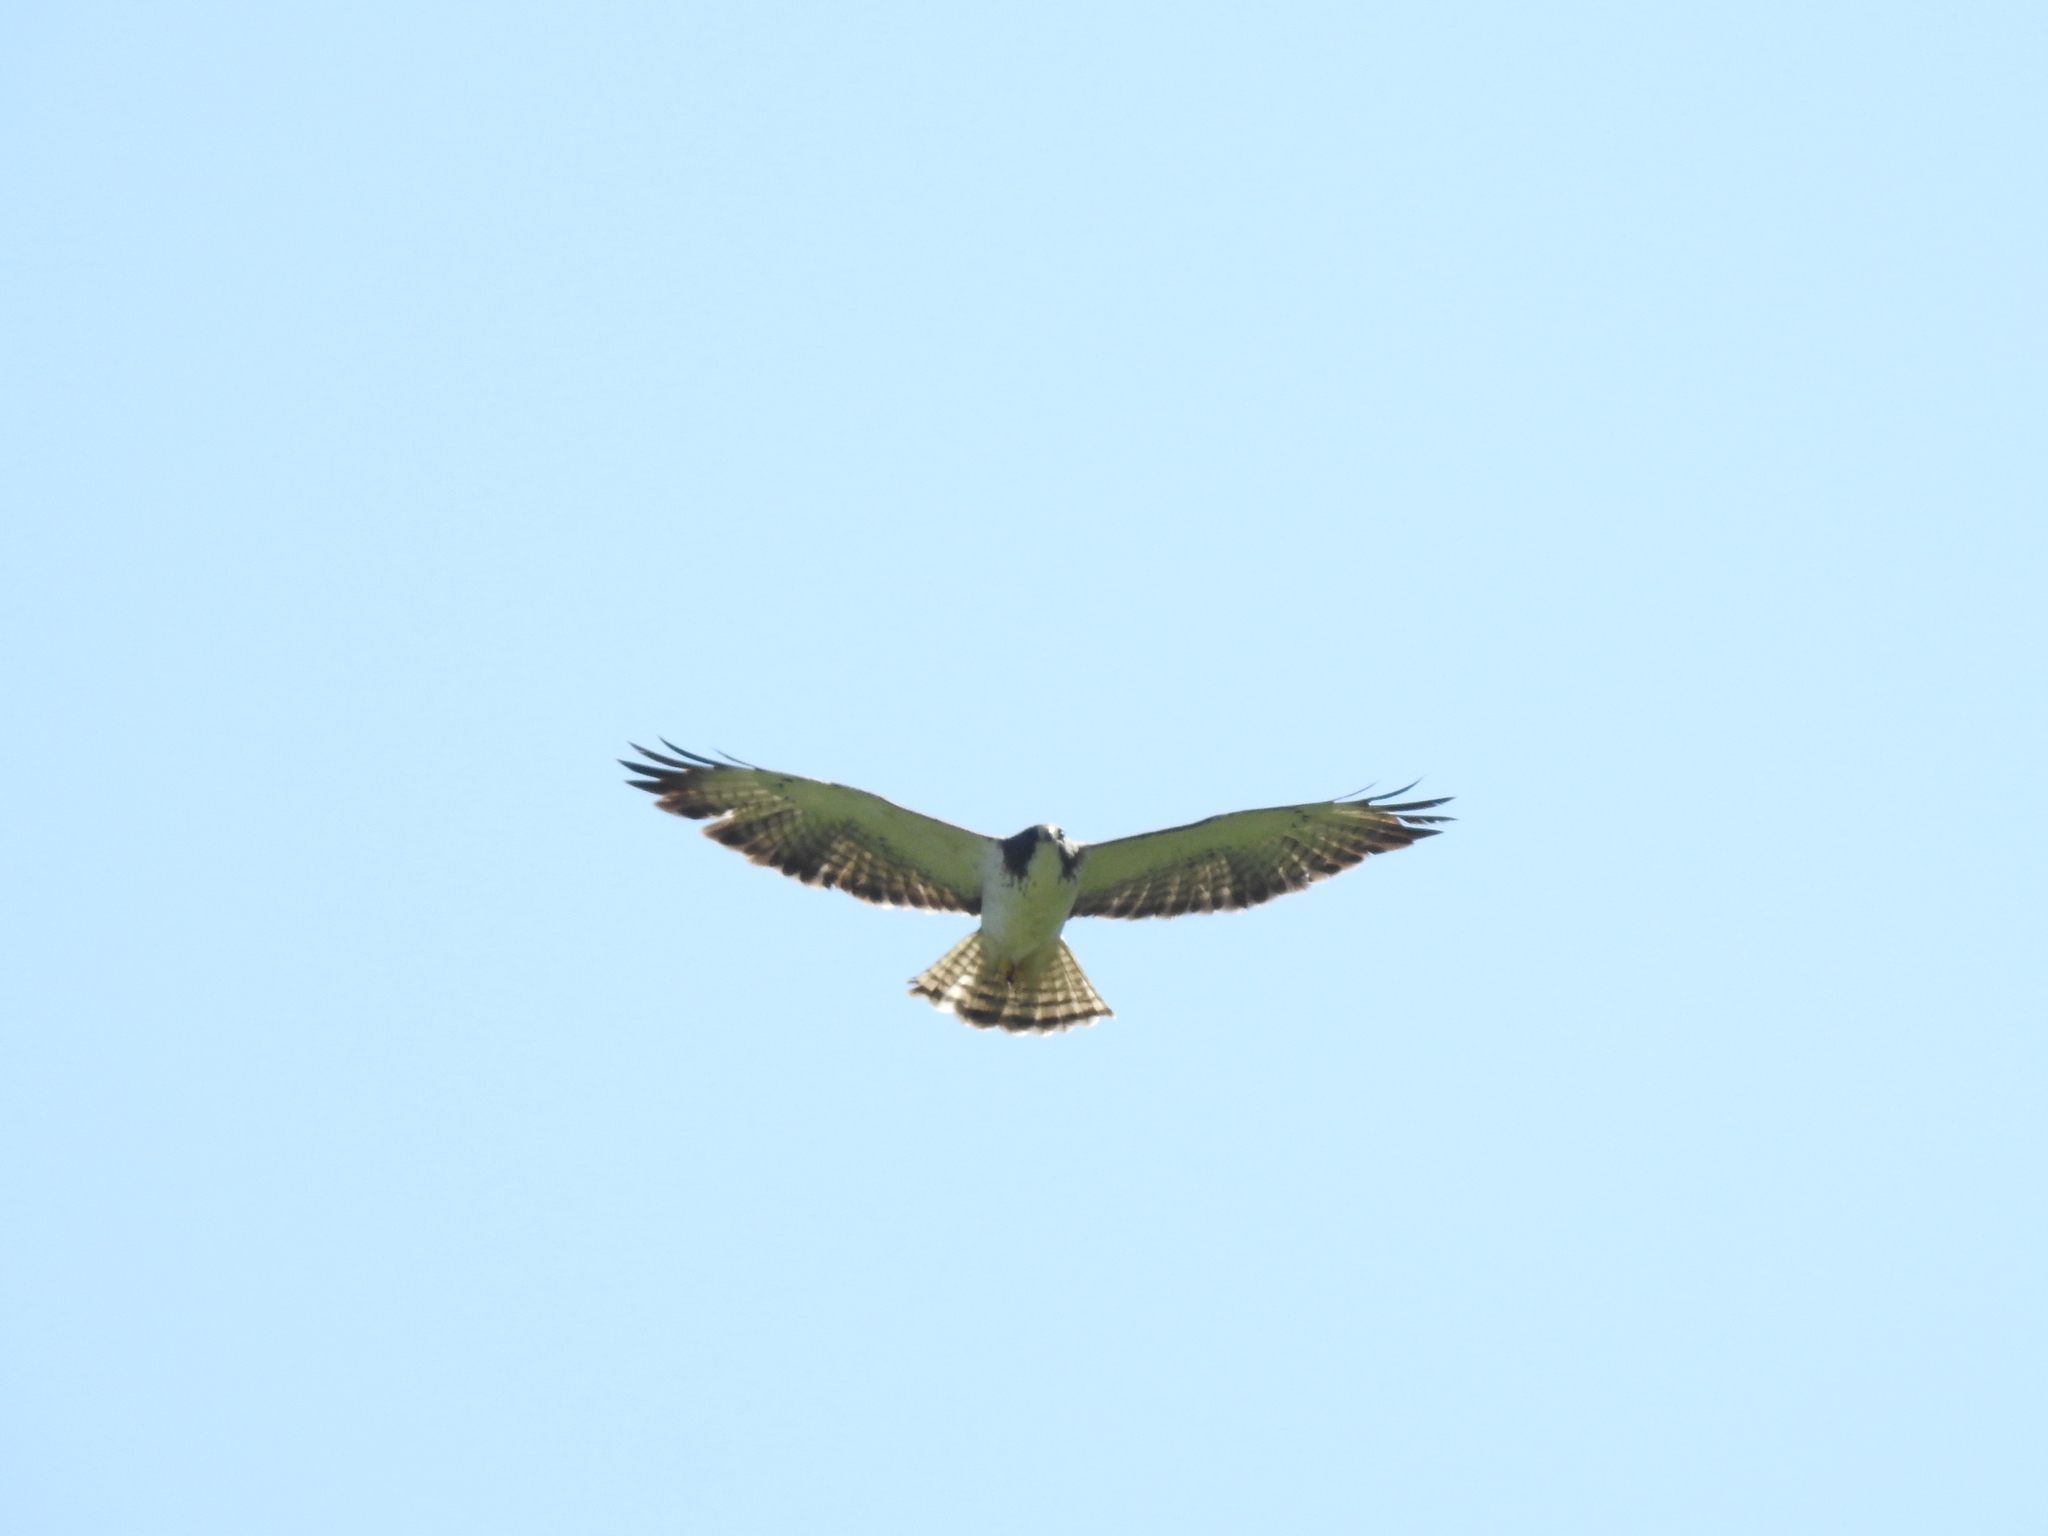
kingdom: Animalia
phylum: Chordata
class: Aves
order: Accipitriformes
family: Accipitridae
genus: Buteo
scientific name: Buteo brachyurus
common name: Short-tailed hawk
